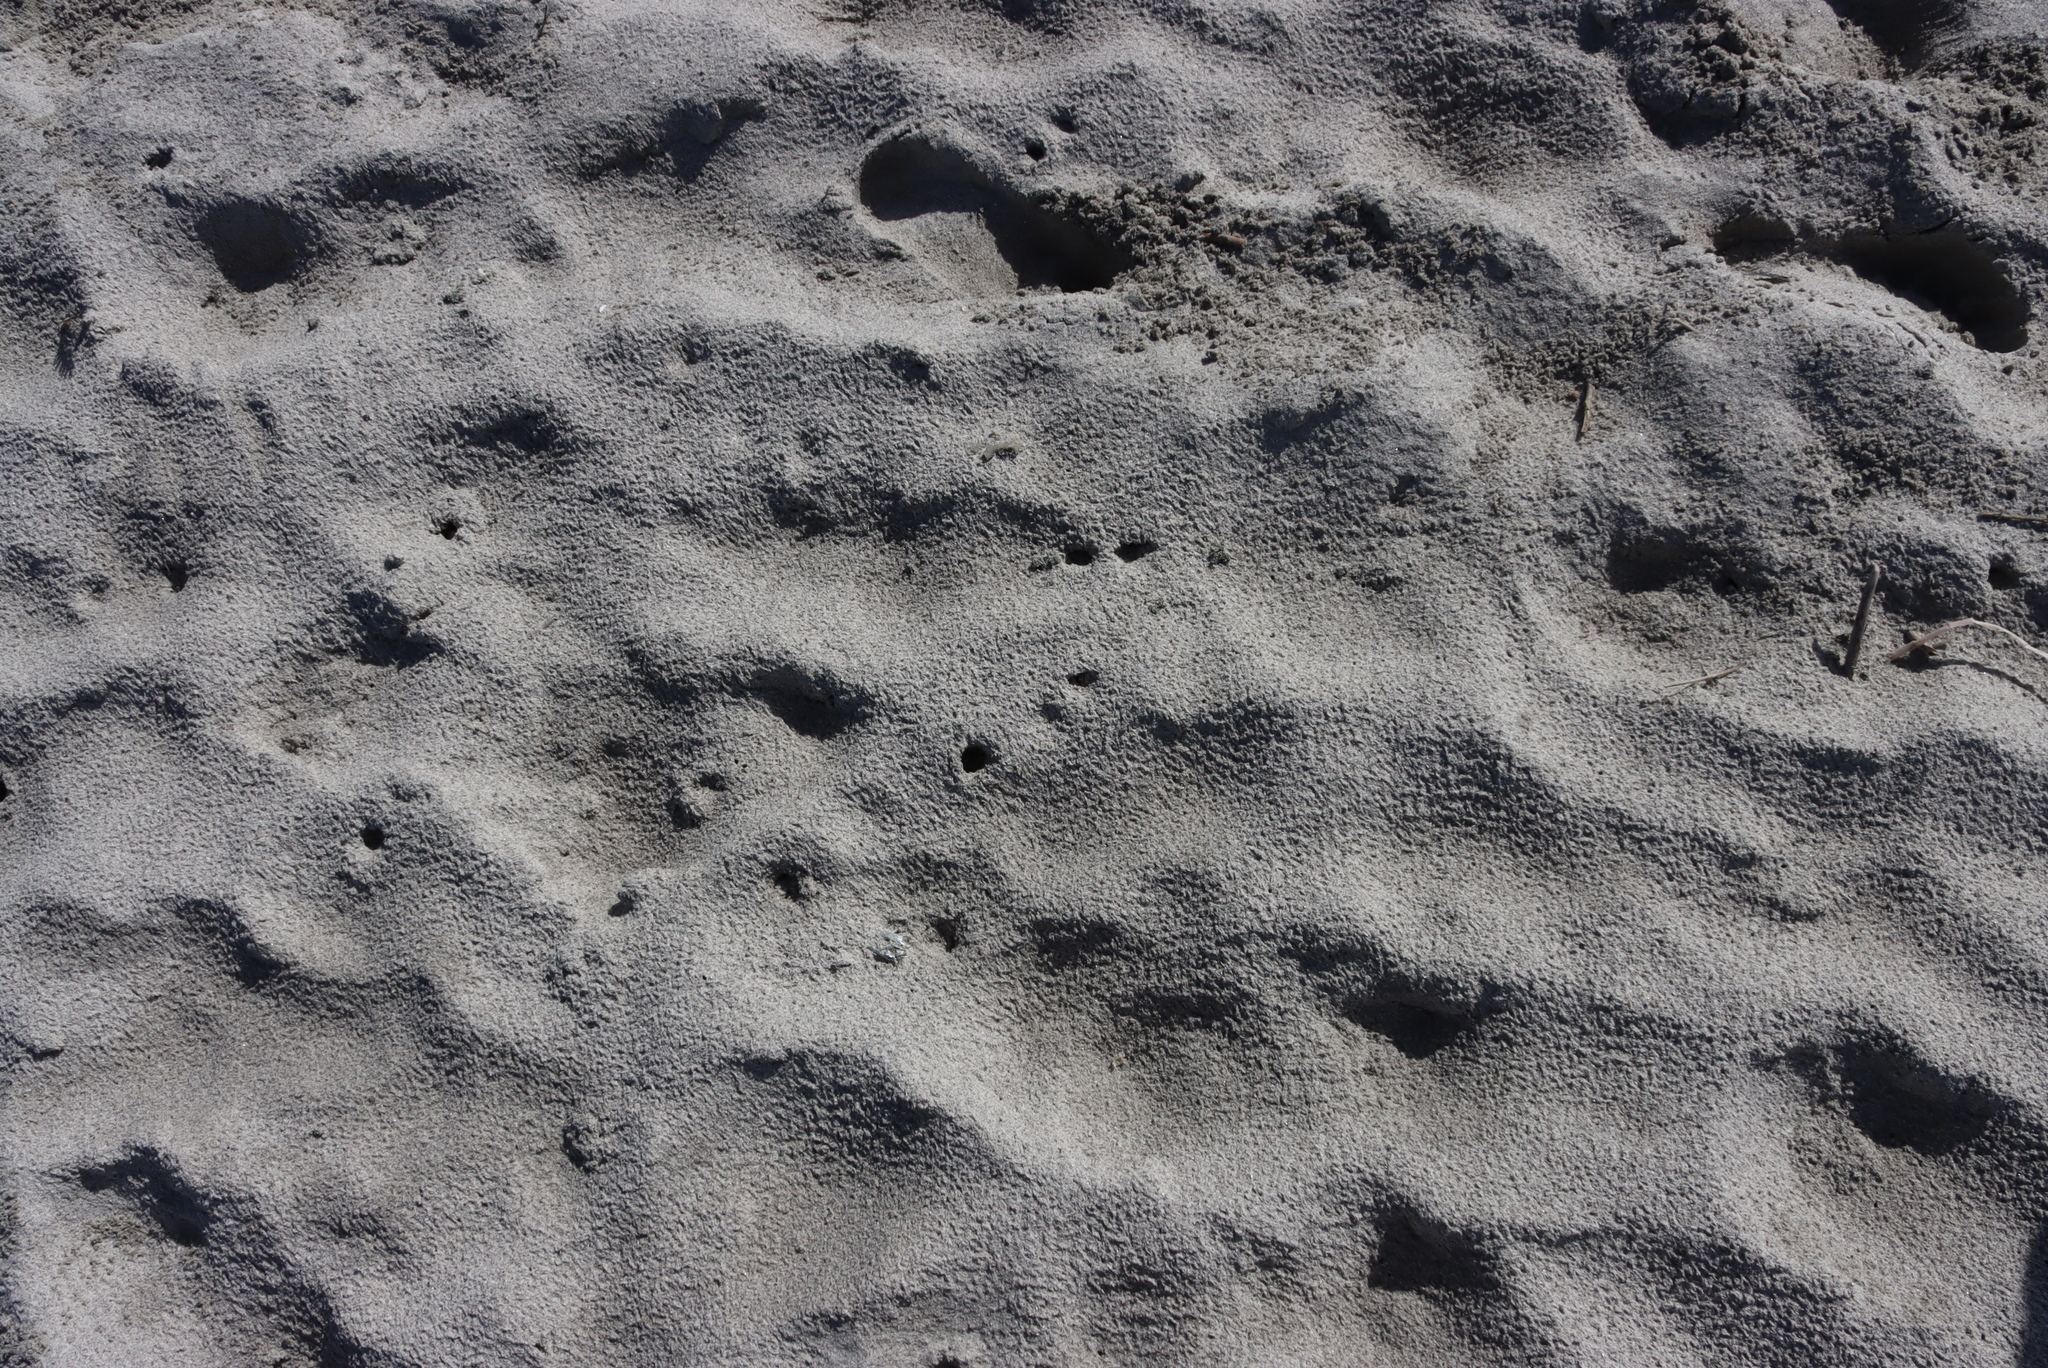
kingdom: Animalia
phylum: Arthropoda
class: Malacostraca
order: Isopoda
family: Tylidae
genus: Tylos
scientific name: Tylos granulatus
